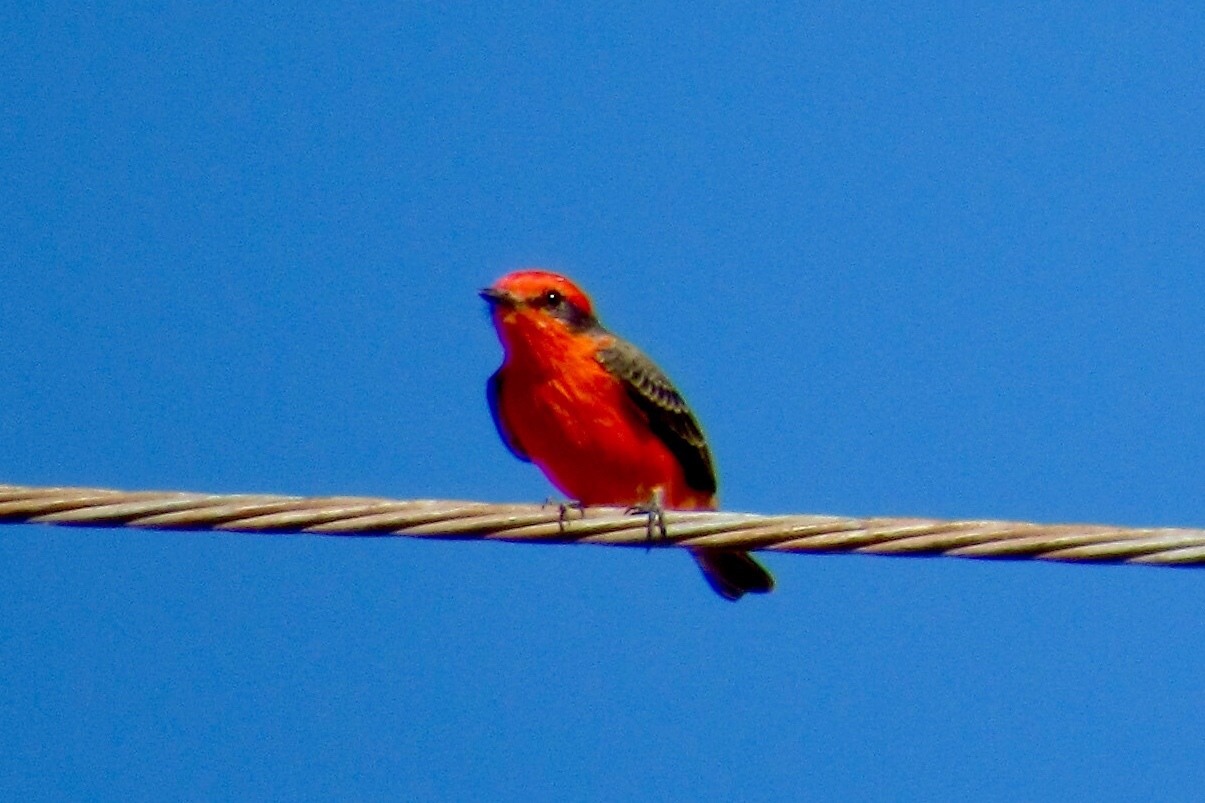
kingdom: Animalia
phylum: Chordata
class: Aves
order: Passeriformes
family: Tyrannidae
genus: Pyrocephalus
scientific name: Pyrocephalus rubinus
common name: Vermilion flycatcher
